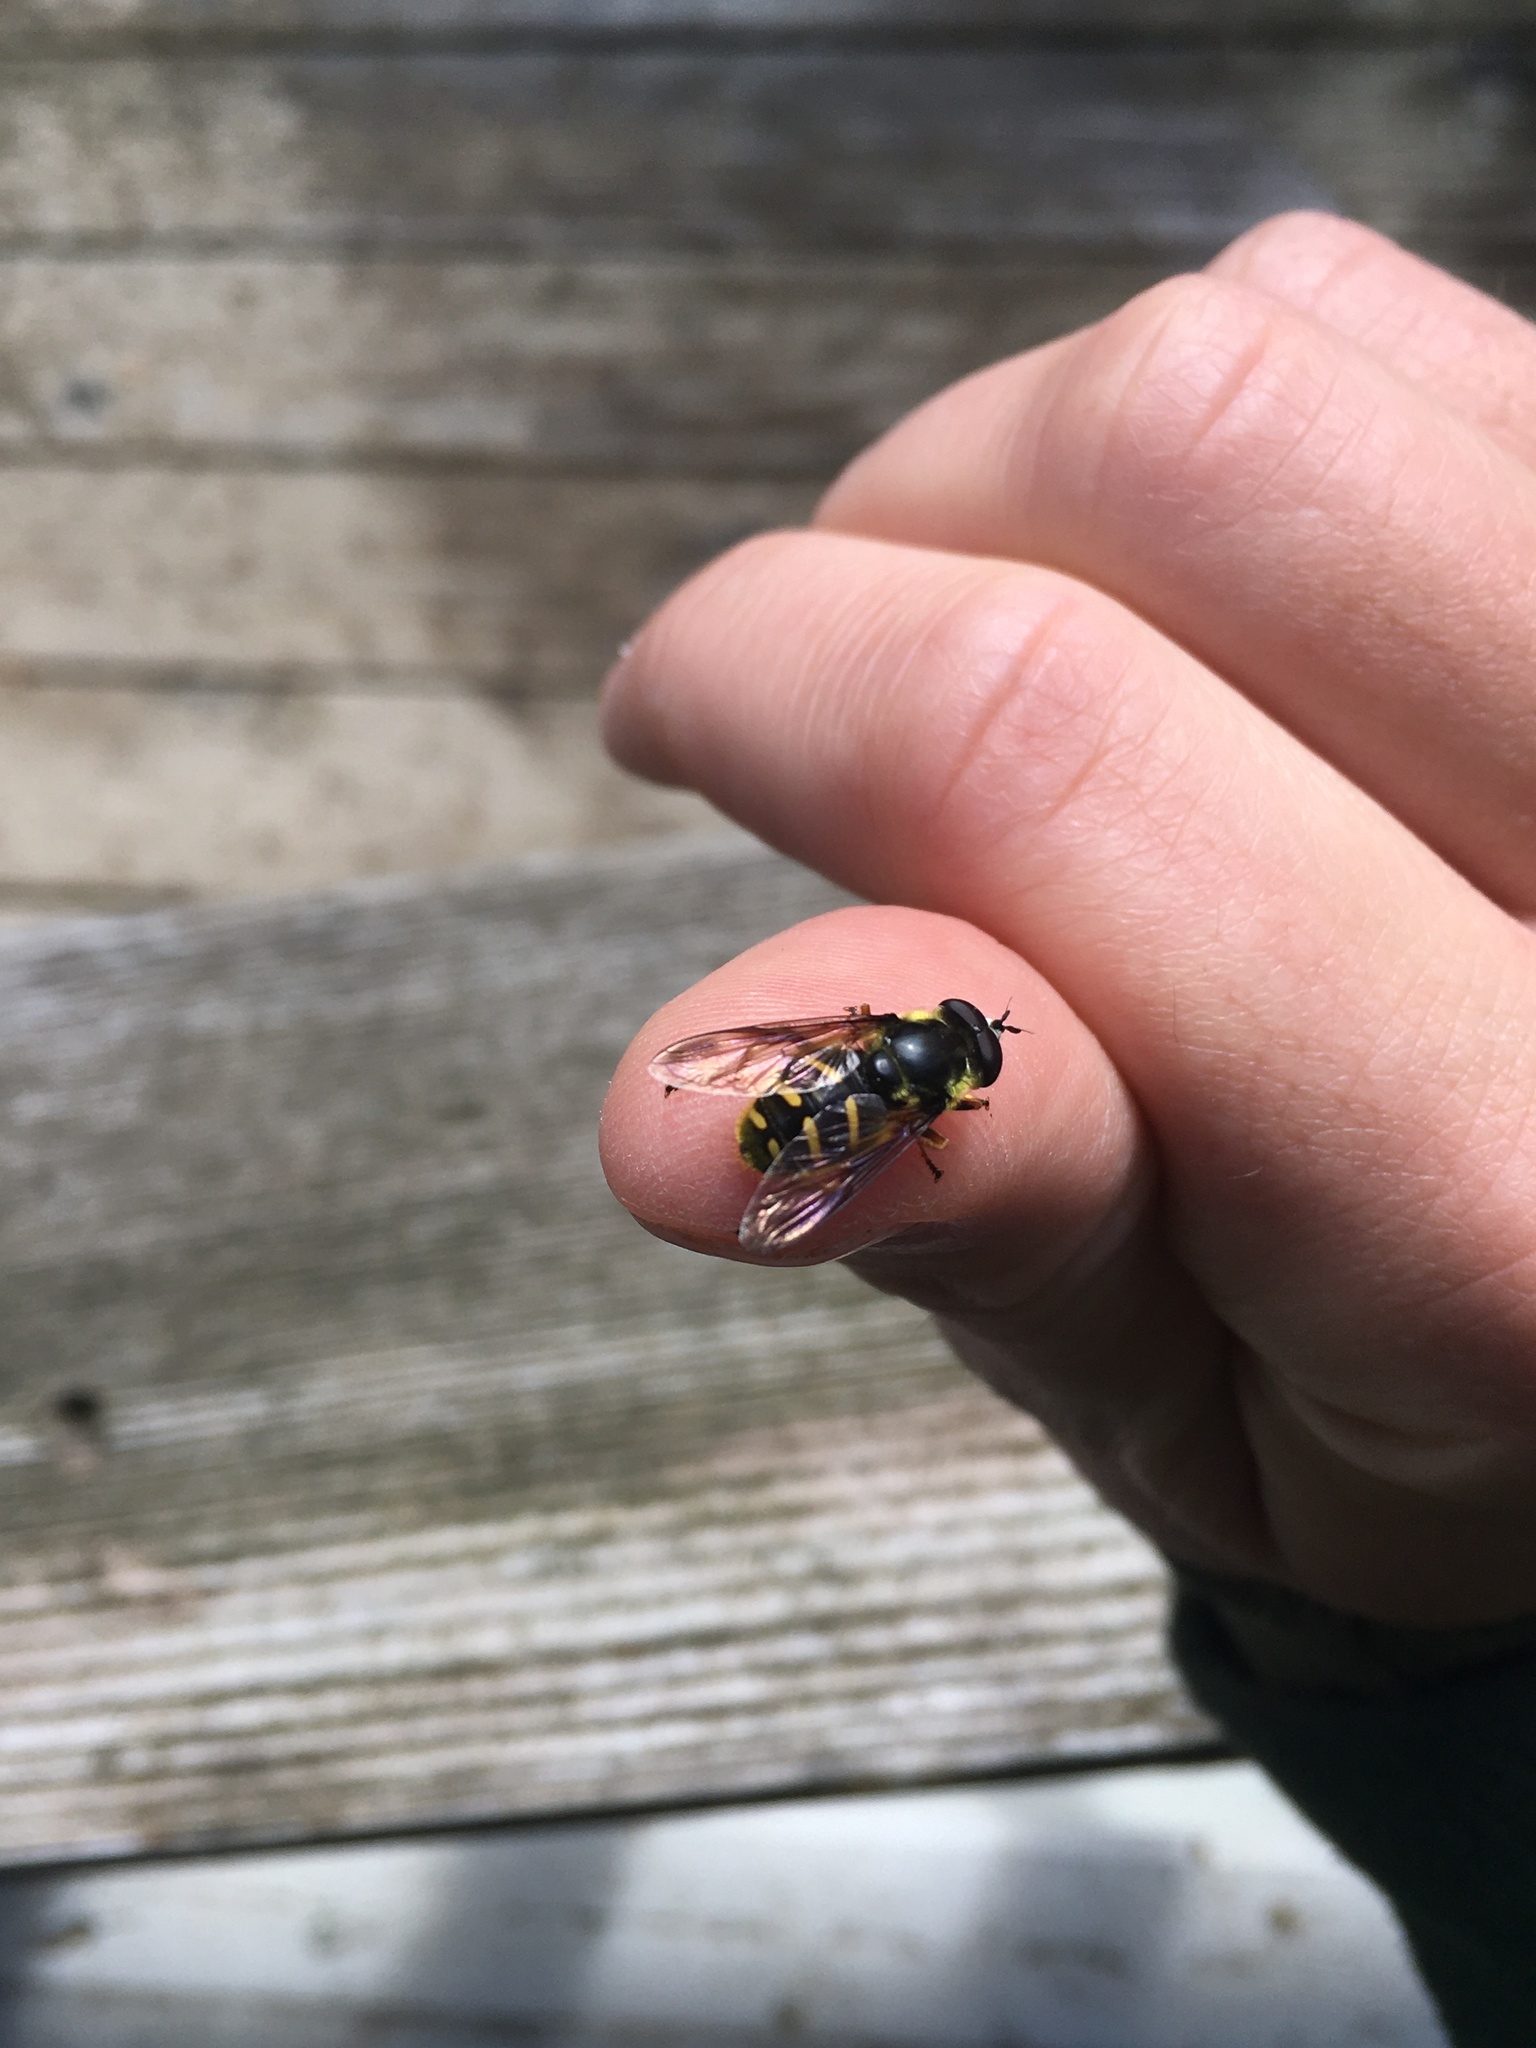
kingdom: Animalia
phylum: Arthropoda
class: Insecta
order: Diptera
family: Syrphidae
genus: Sericomyia
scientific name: Sericomyia chrysotoxoides
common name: Oblique-banded pond fly
